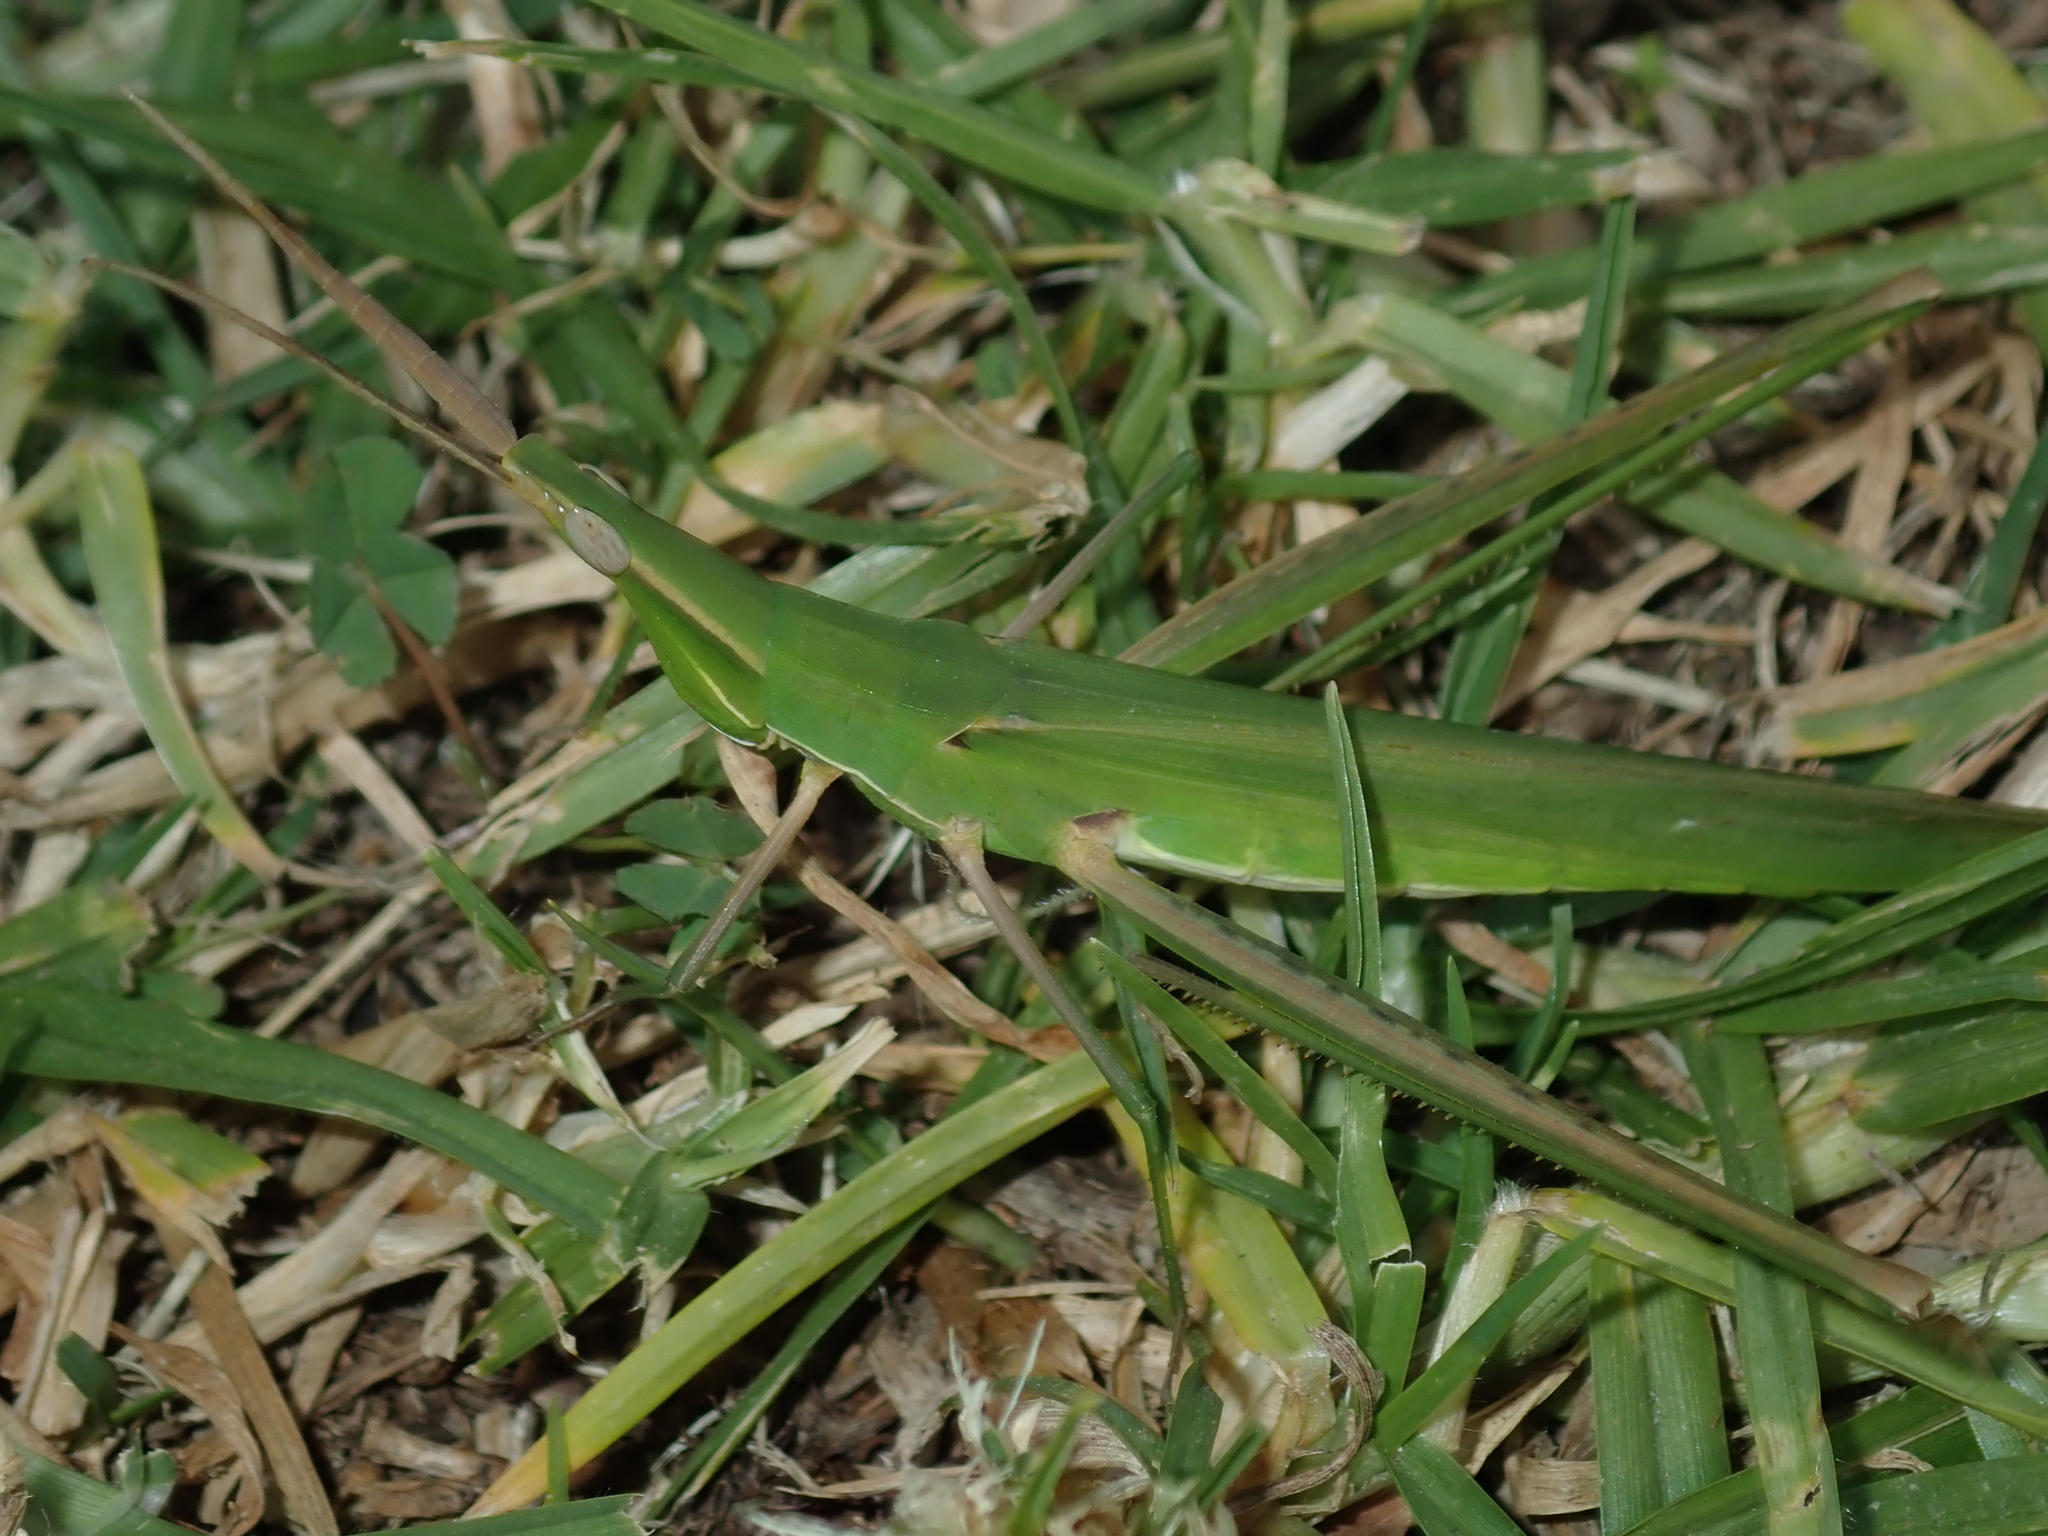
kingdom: Animalia
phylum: Arthropoda
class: Insecta
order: Orthoptera
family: Acrididae
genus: Acrida
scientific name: Acrida conica
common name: Giant green slantface
